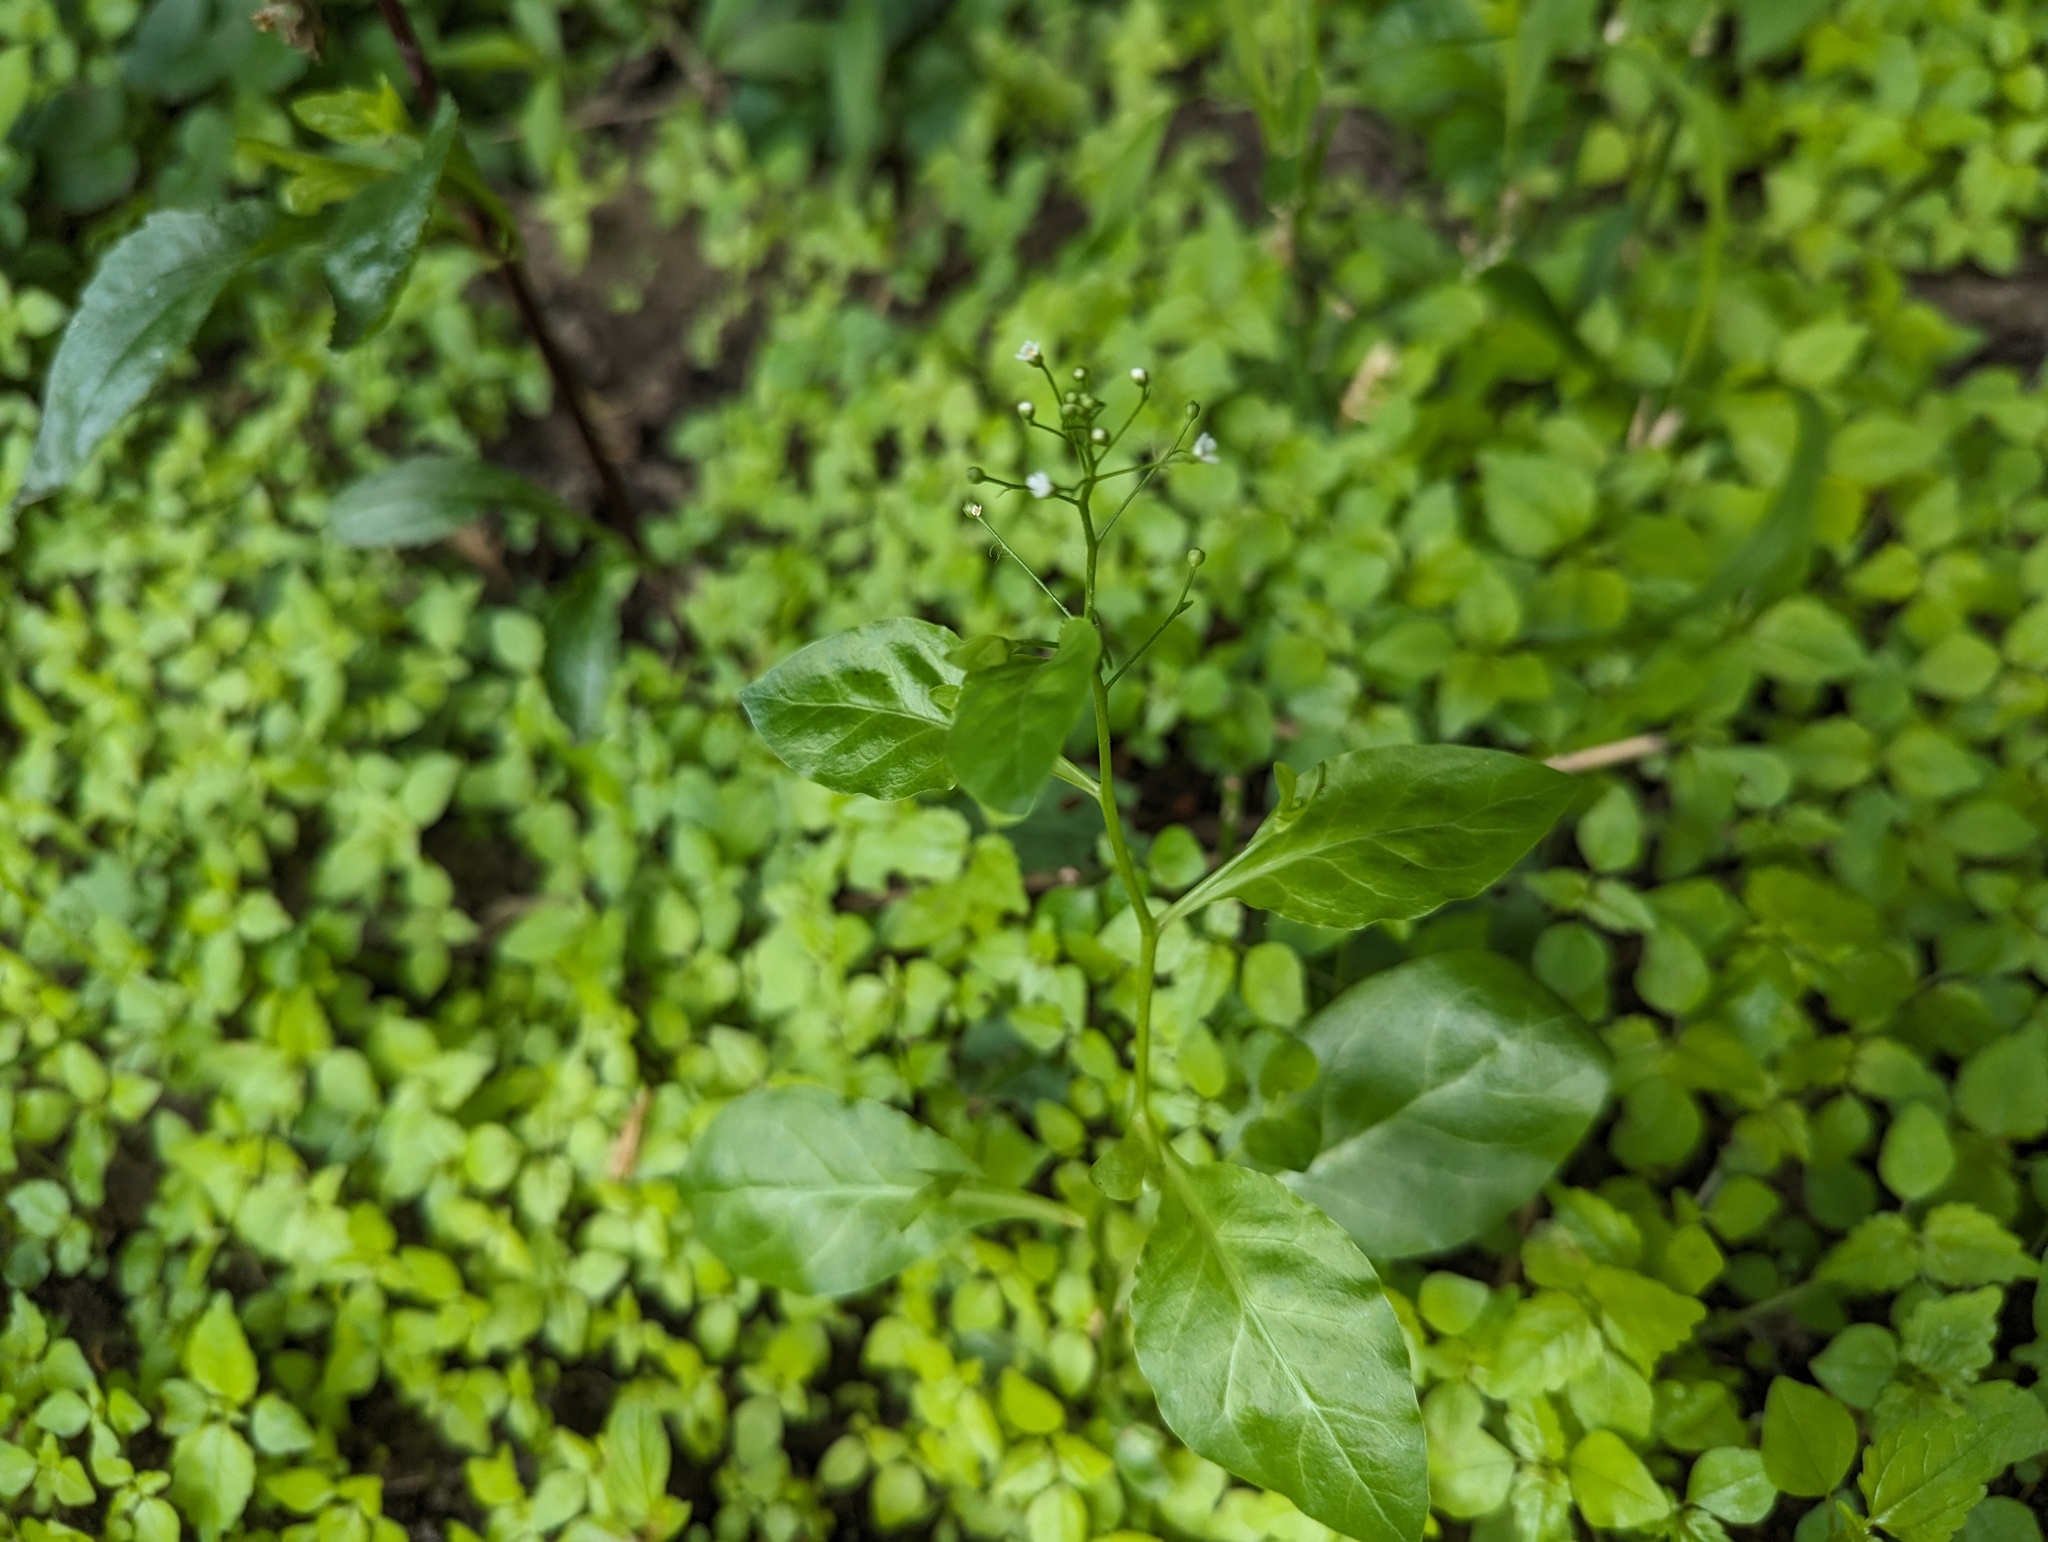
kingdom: Plantae
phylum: Tracheophyta
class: Magnoliopsida
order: Ericales
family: Primulaceae
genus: Samolus
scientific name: Samolus parviflorus
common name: False water pimpernel
